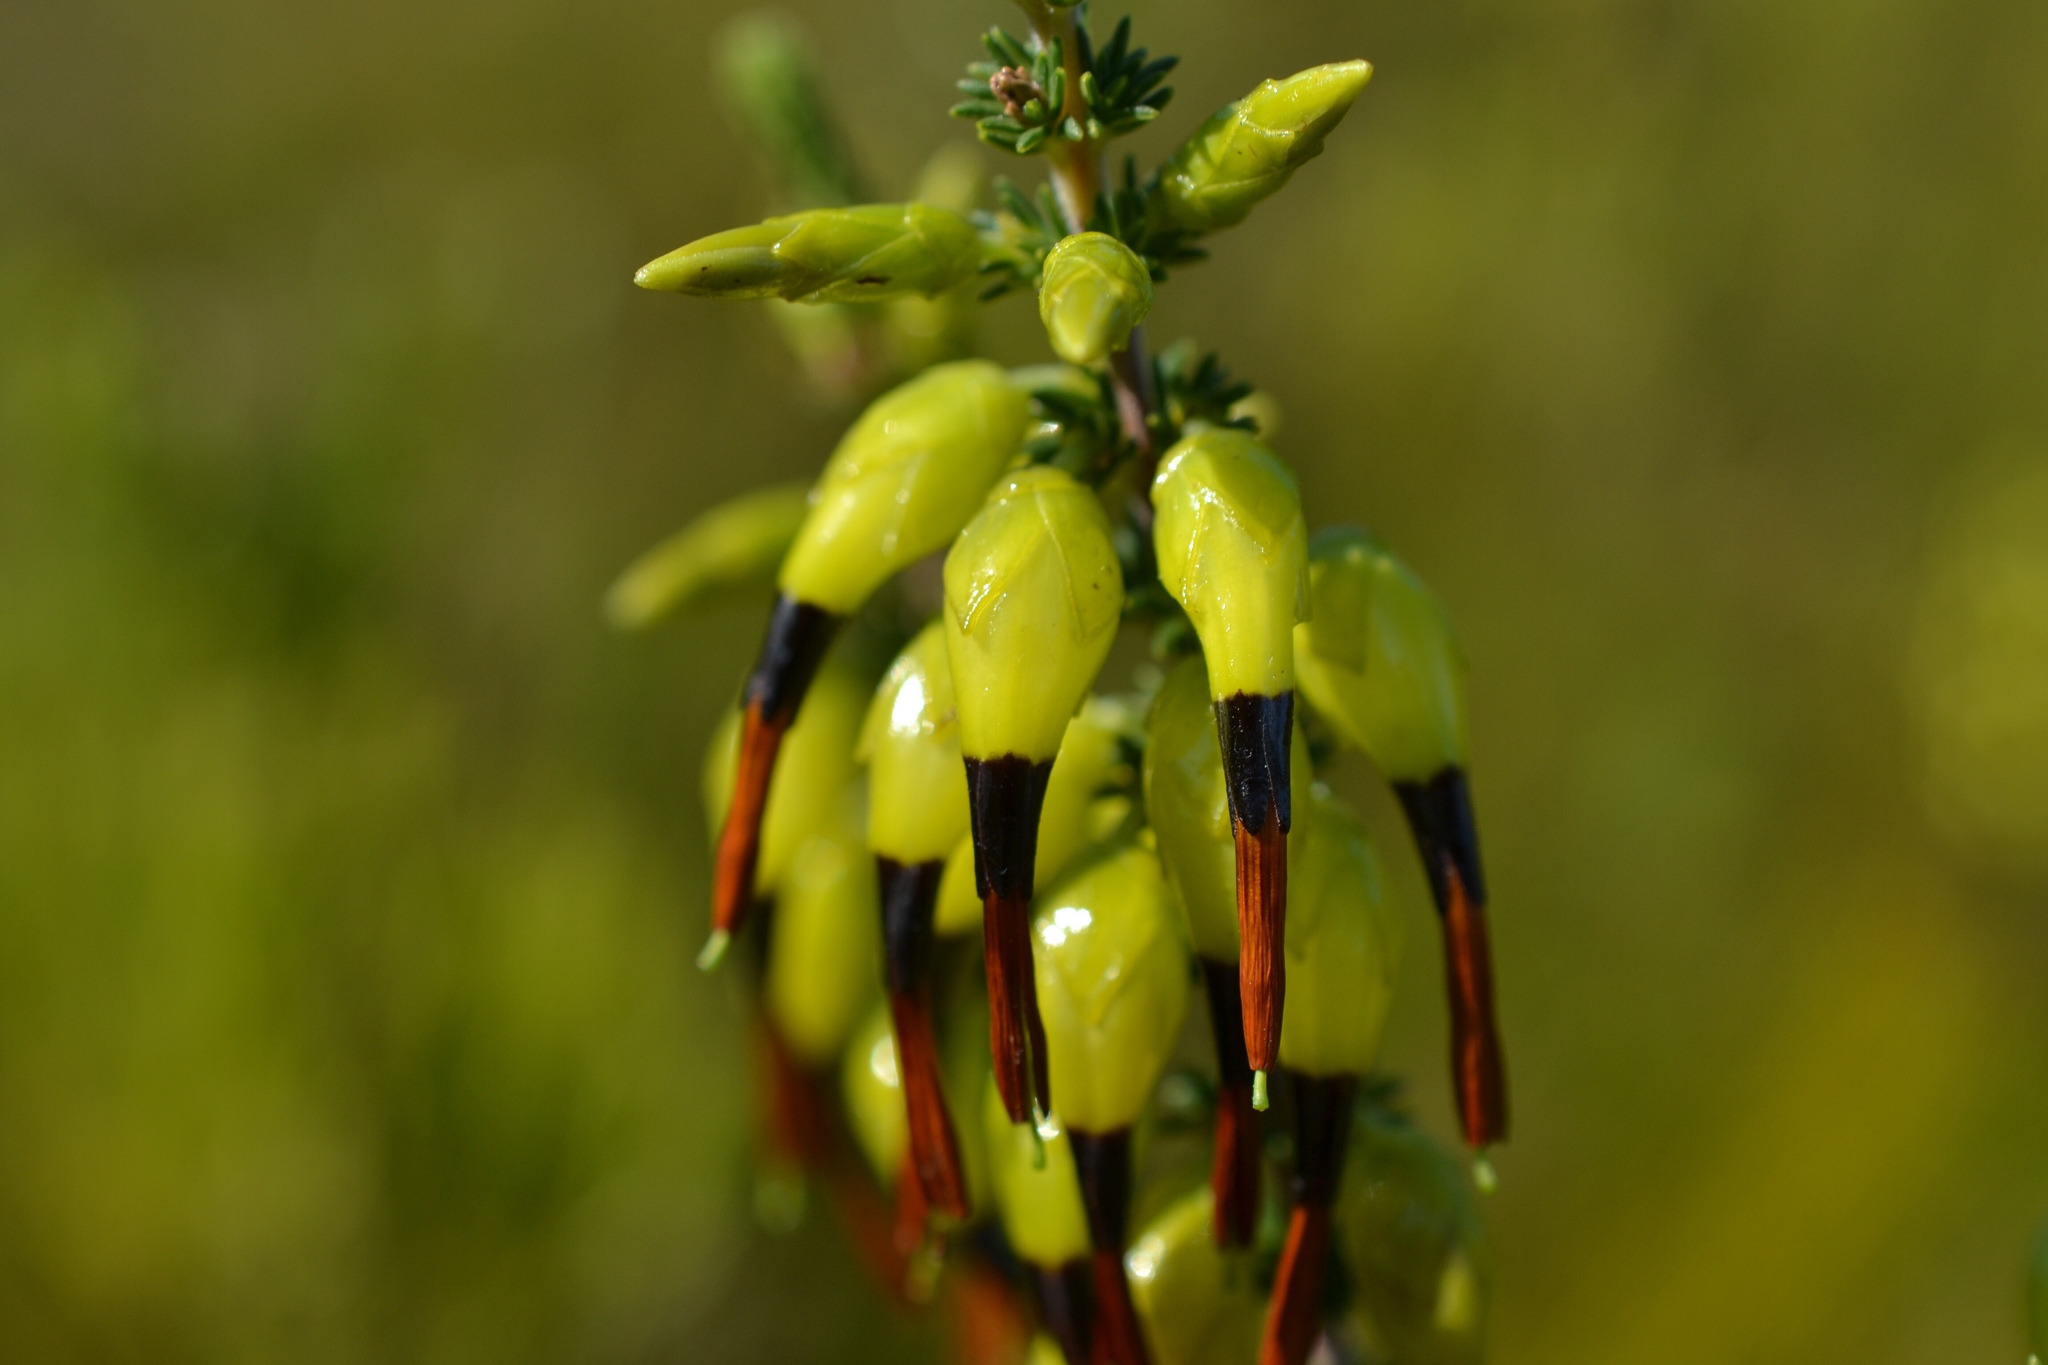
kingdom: Plantae
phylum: Tracheophyta
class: Magnoliopsida
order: Ericales
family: Ericaceae
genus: Erica
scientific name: Erica melastoma
